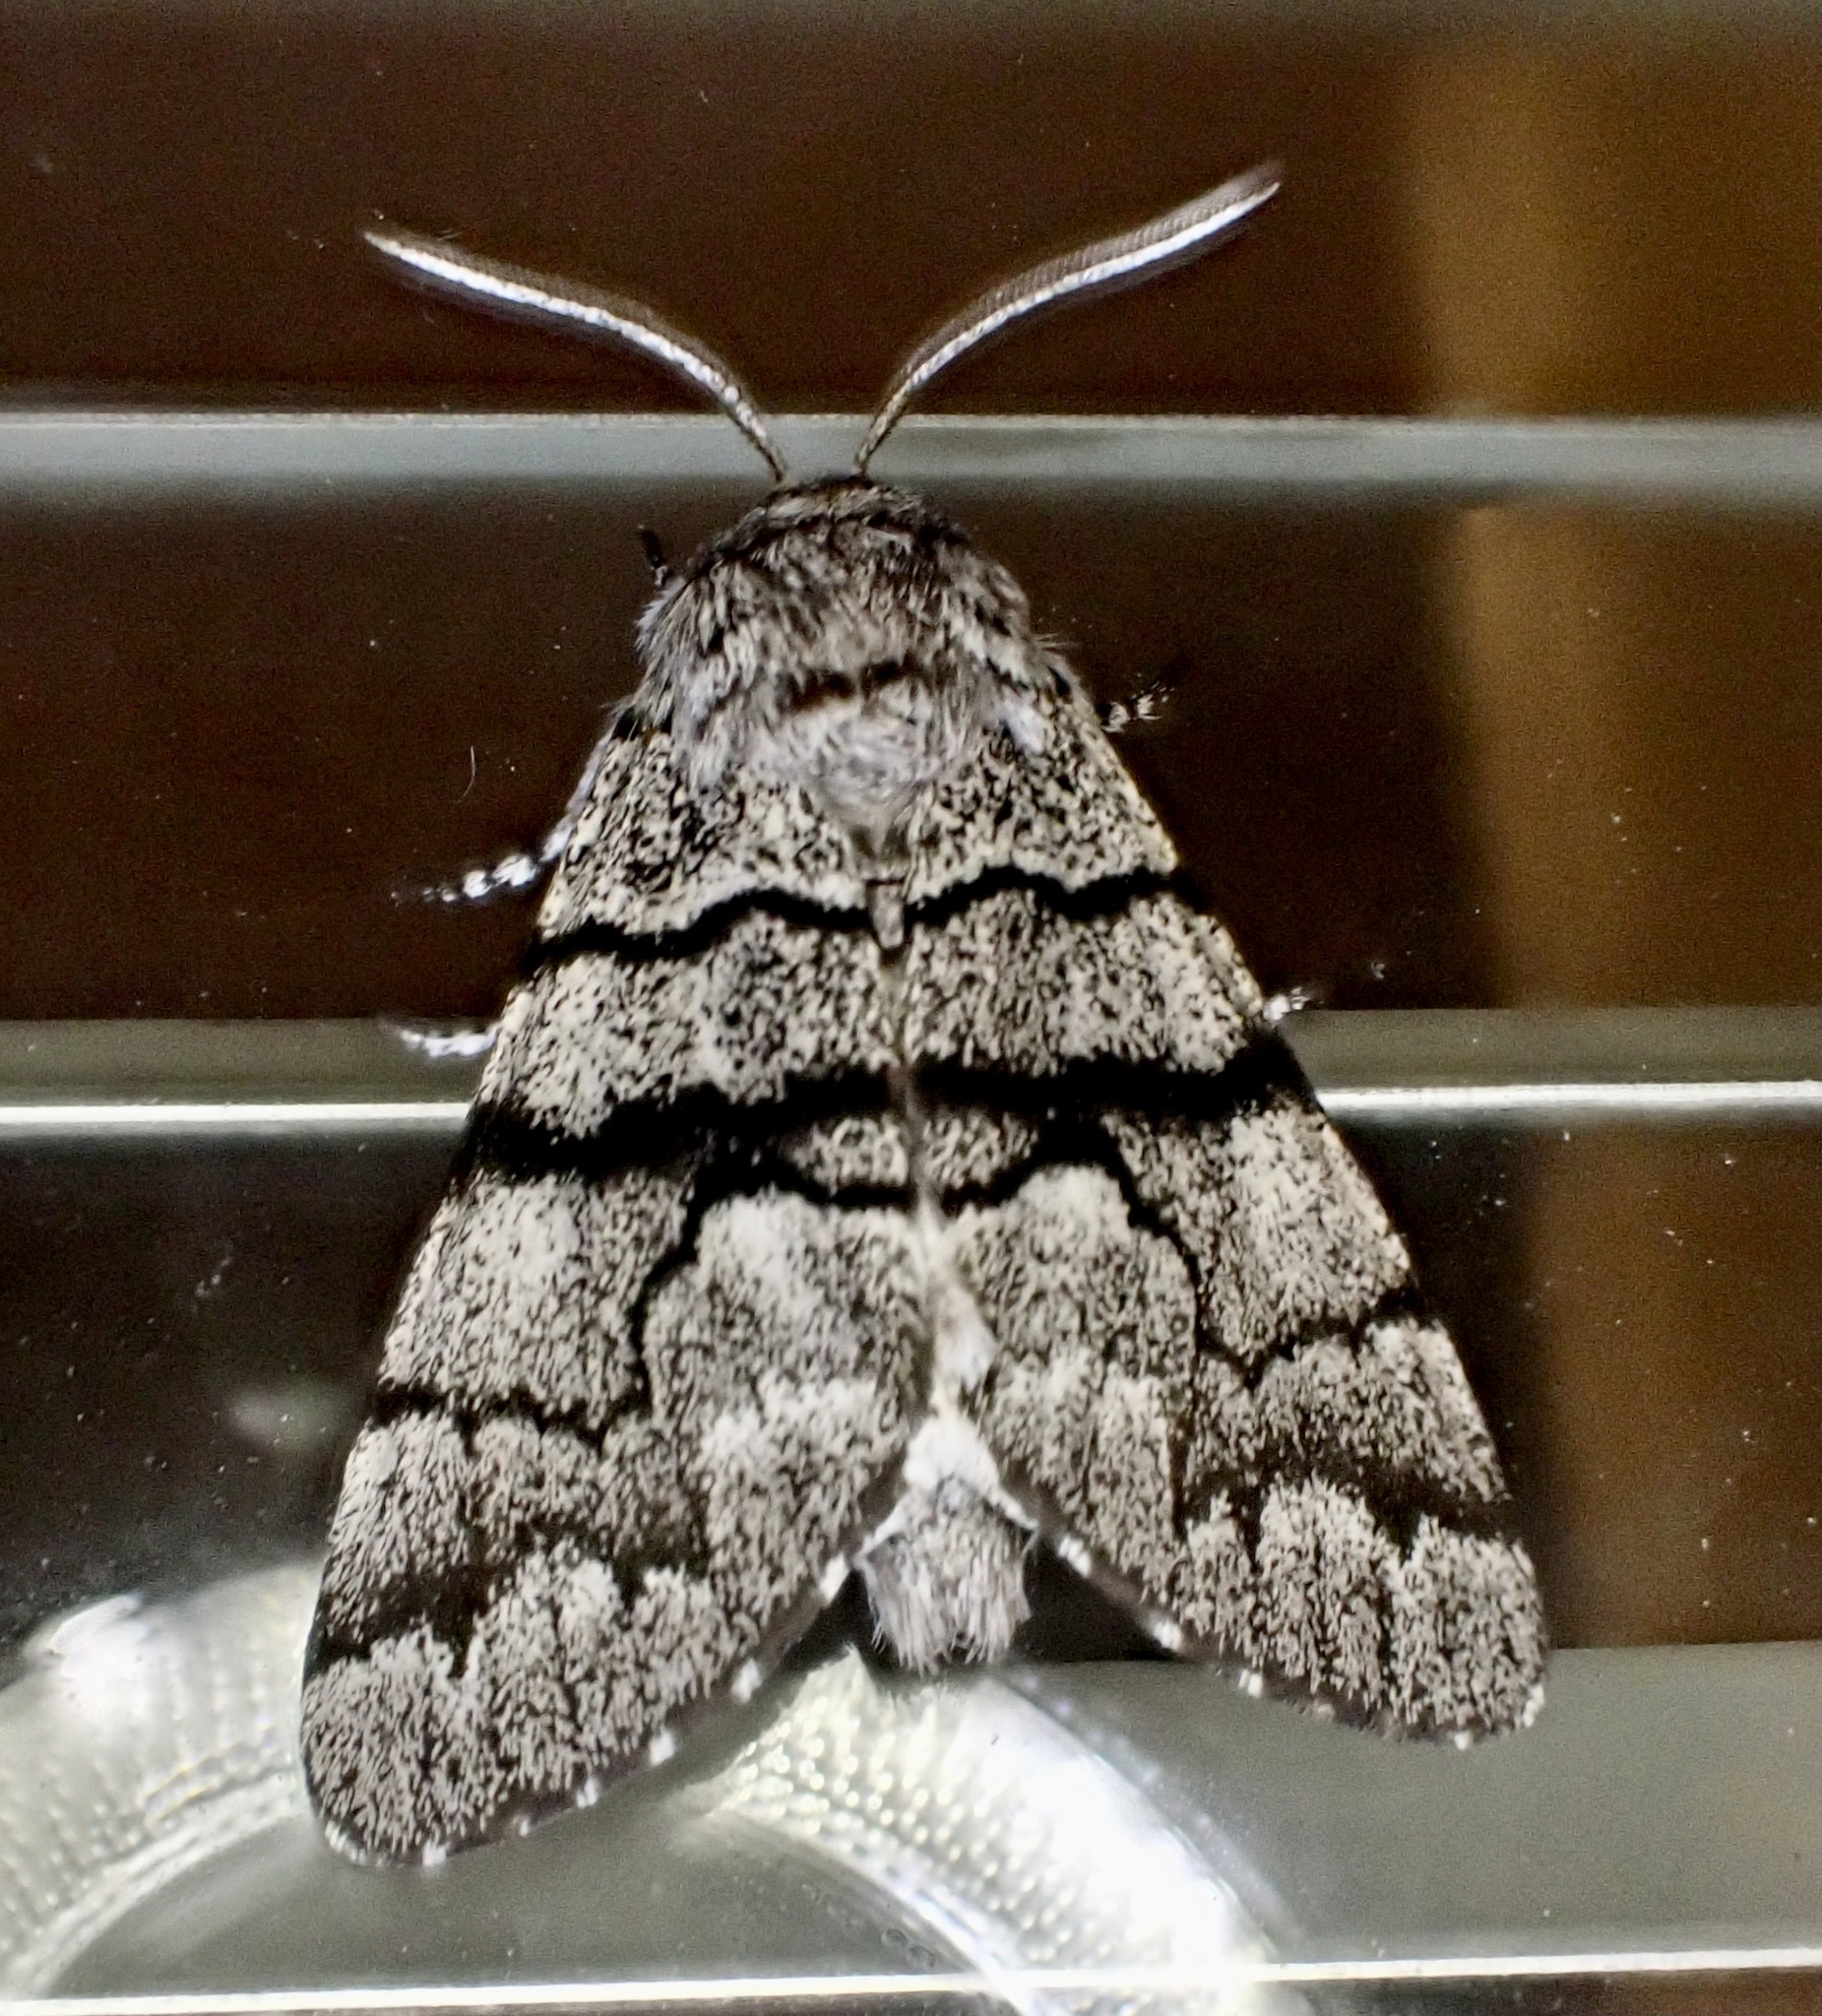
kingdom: Animalia
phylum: Arthropoda
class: Insecta
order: Lepidoptera
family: Noctuidae
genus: Panthea
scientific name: Panthea furcilla
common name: Eastern panthea moth
